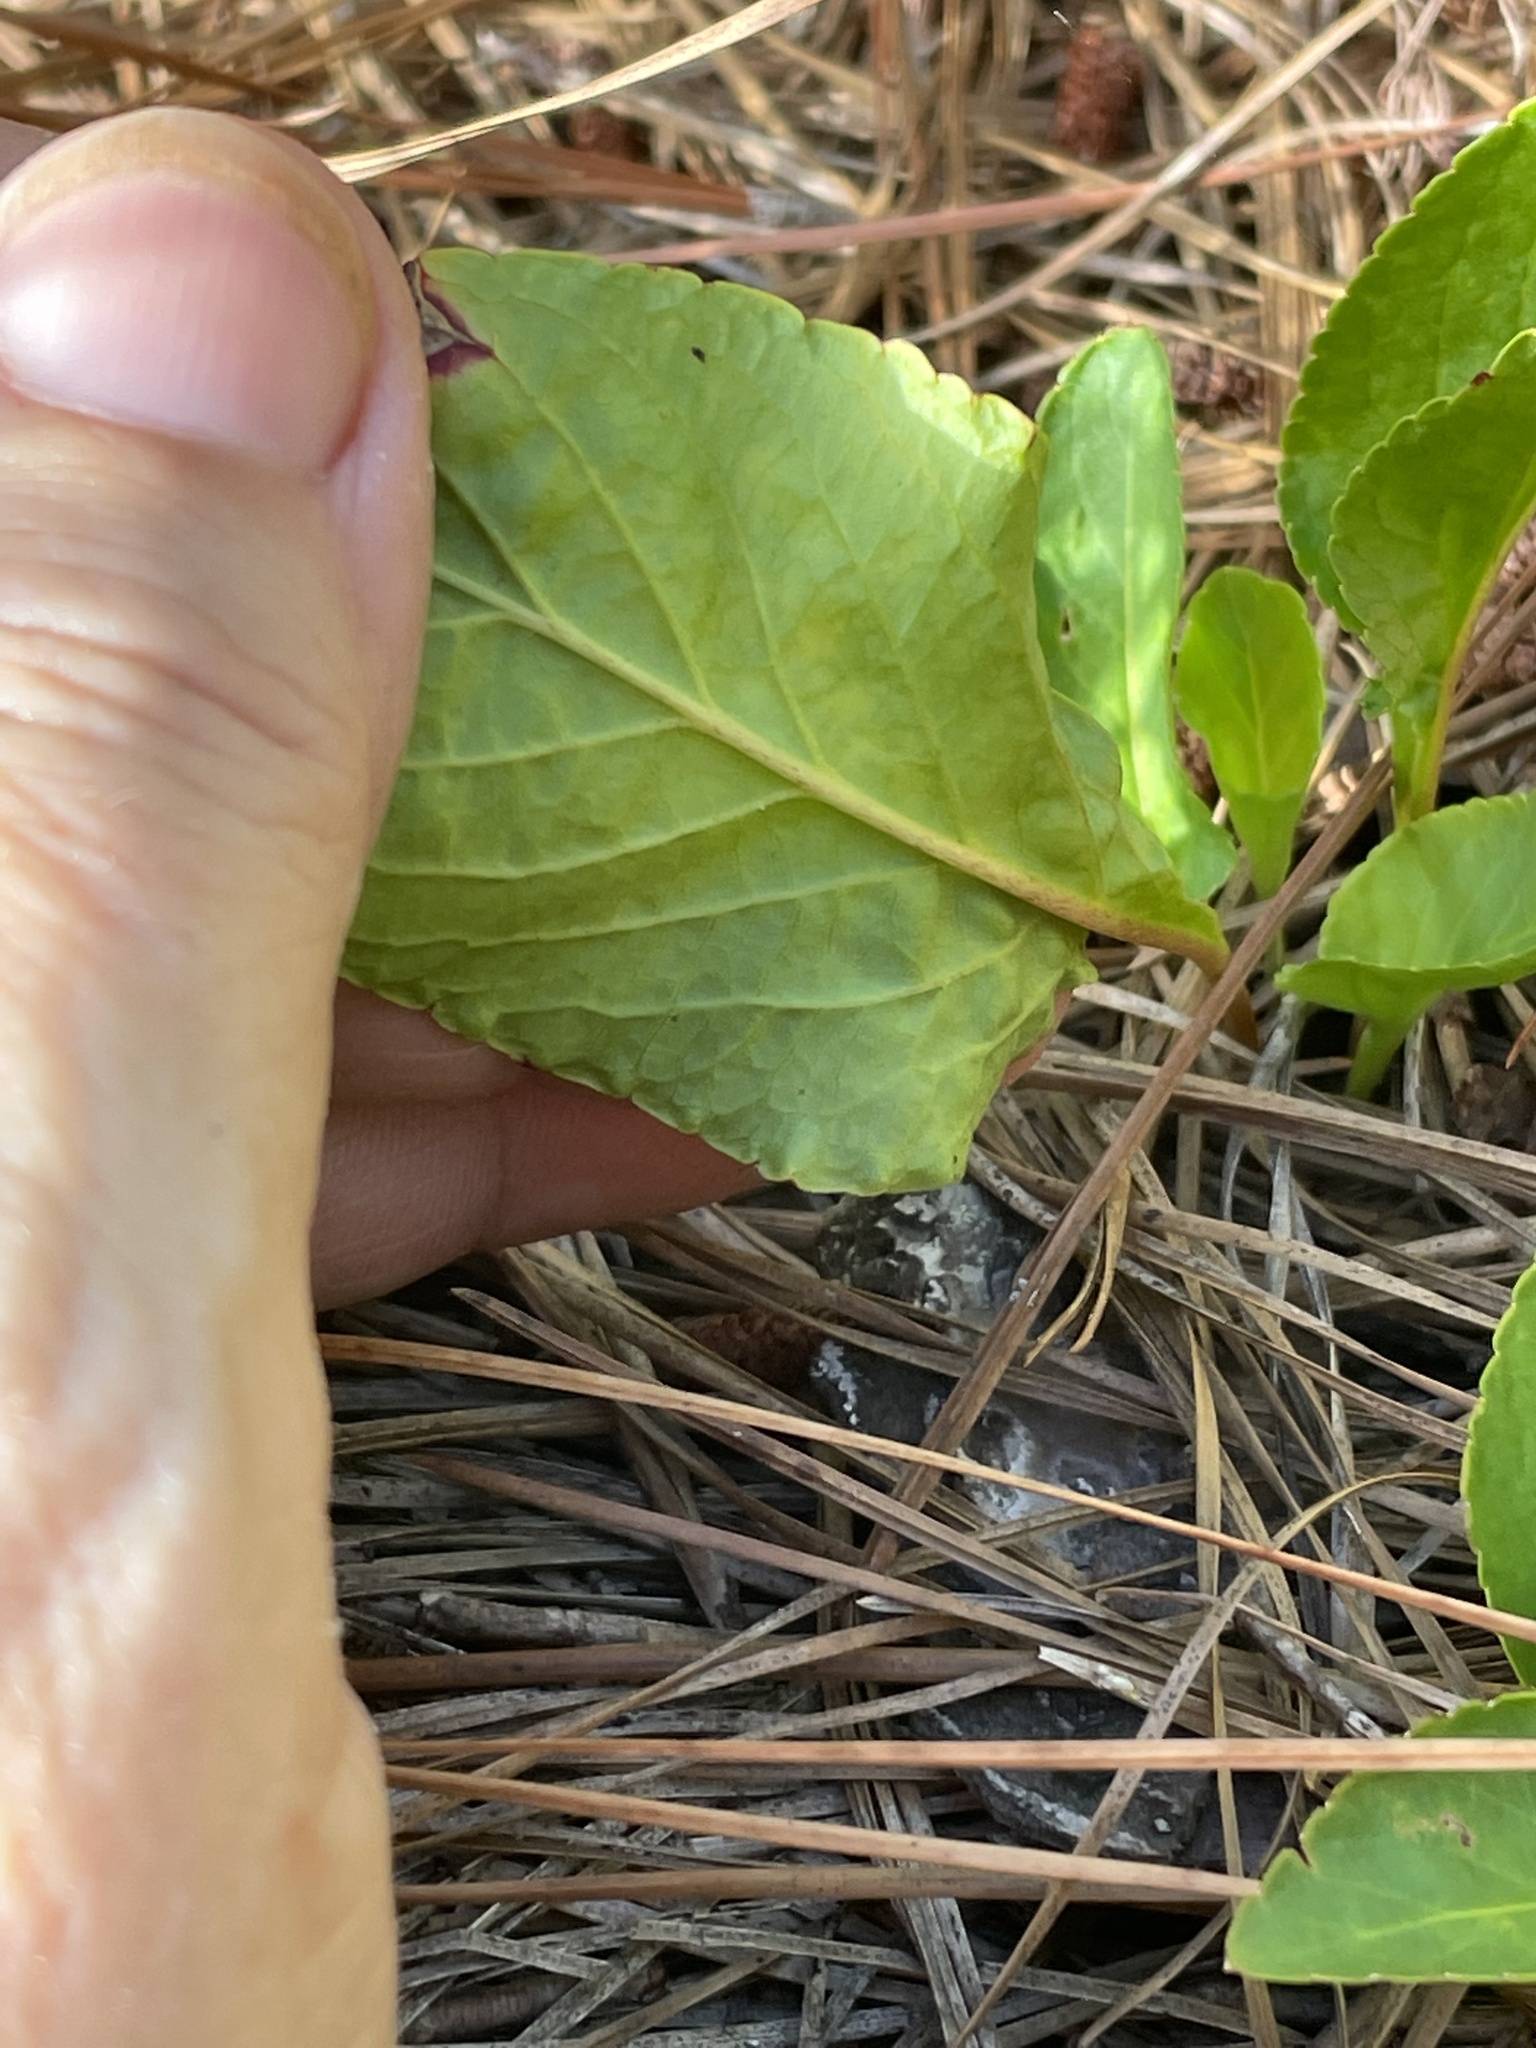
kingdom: Plantae
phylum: Tracheophyta
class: Magnoliopsida
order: Malpighiales
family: Violaceae
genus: Viola
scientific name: Viola primulifolia
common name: Primrose-leaf violet
